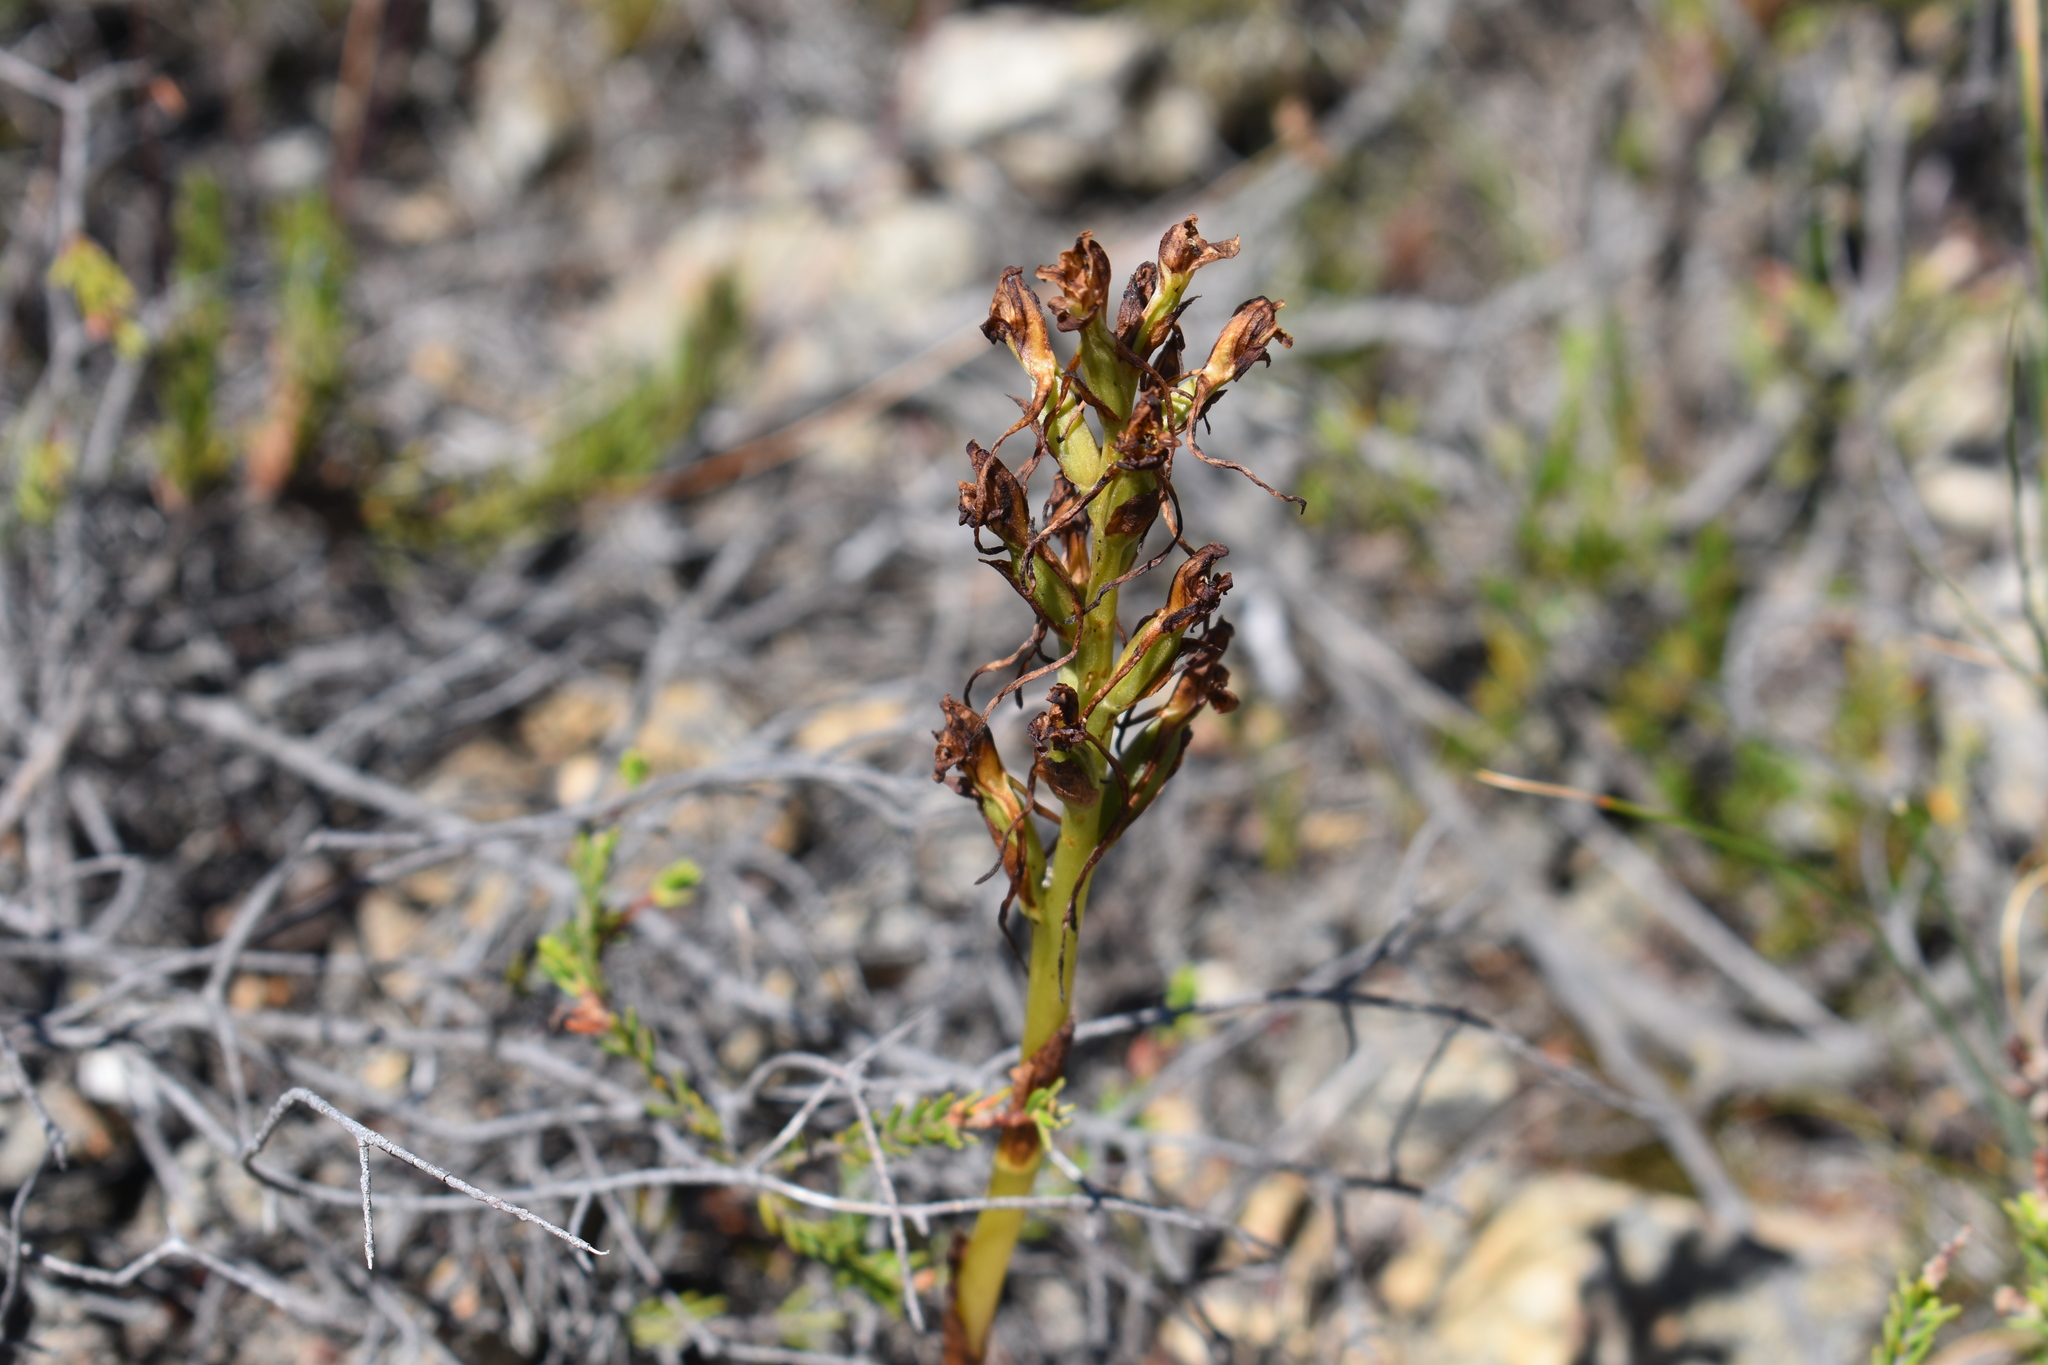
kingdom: Plantae
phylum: Tracheophyta
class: Liliopsida
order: Asparagales
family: Orchidaceae
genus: Satyrium
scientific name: Satyrium eurycalcaratum
